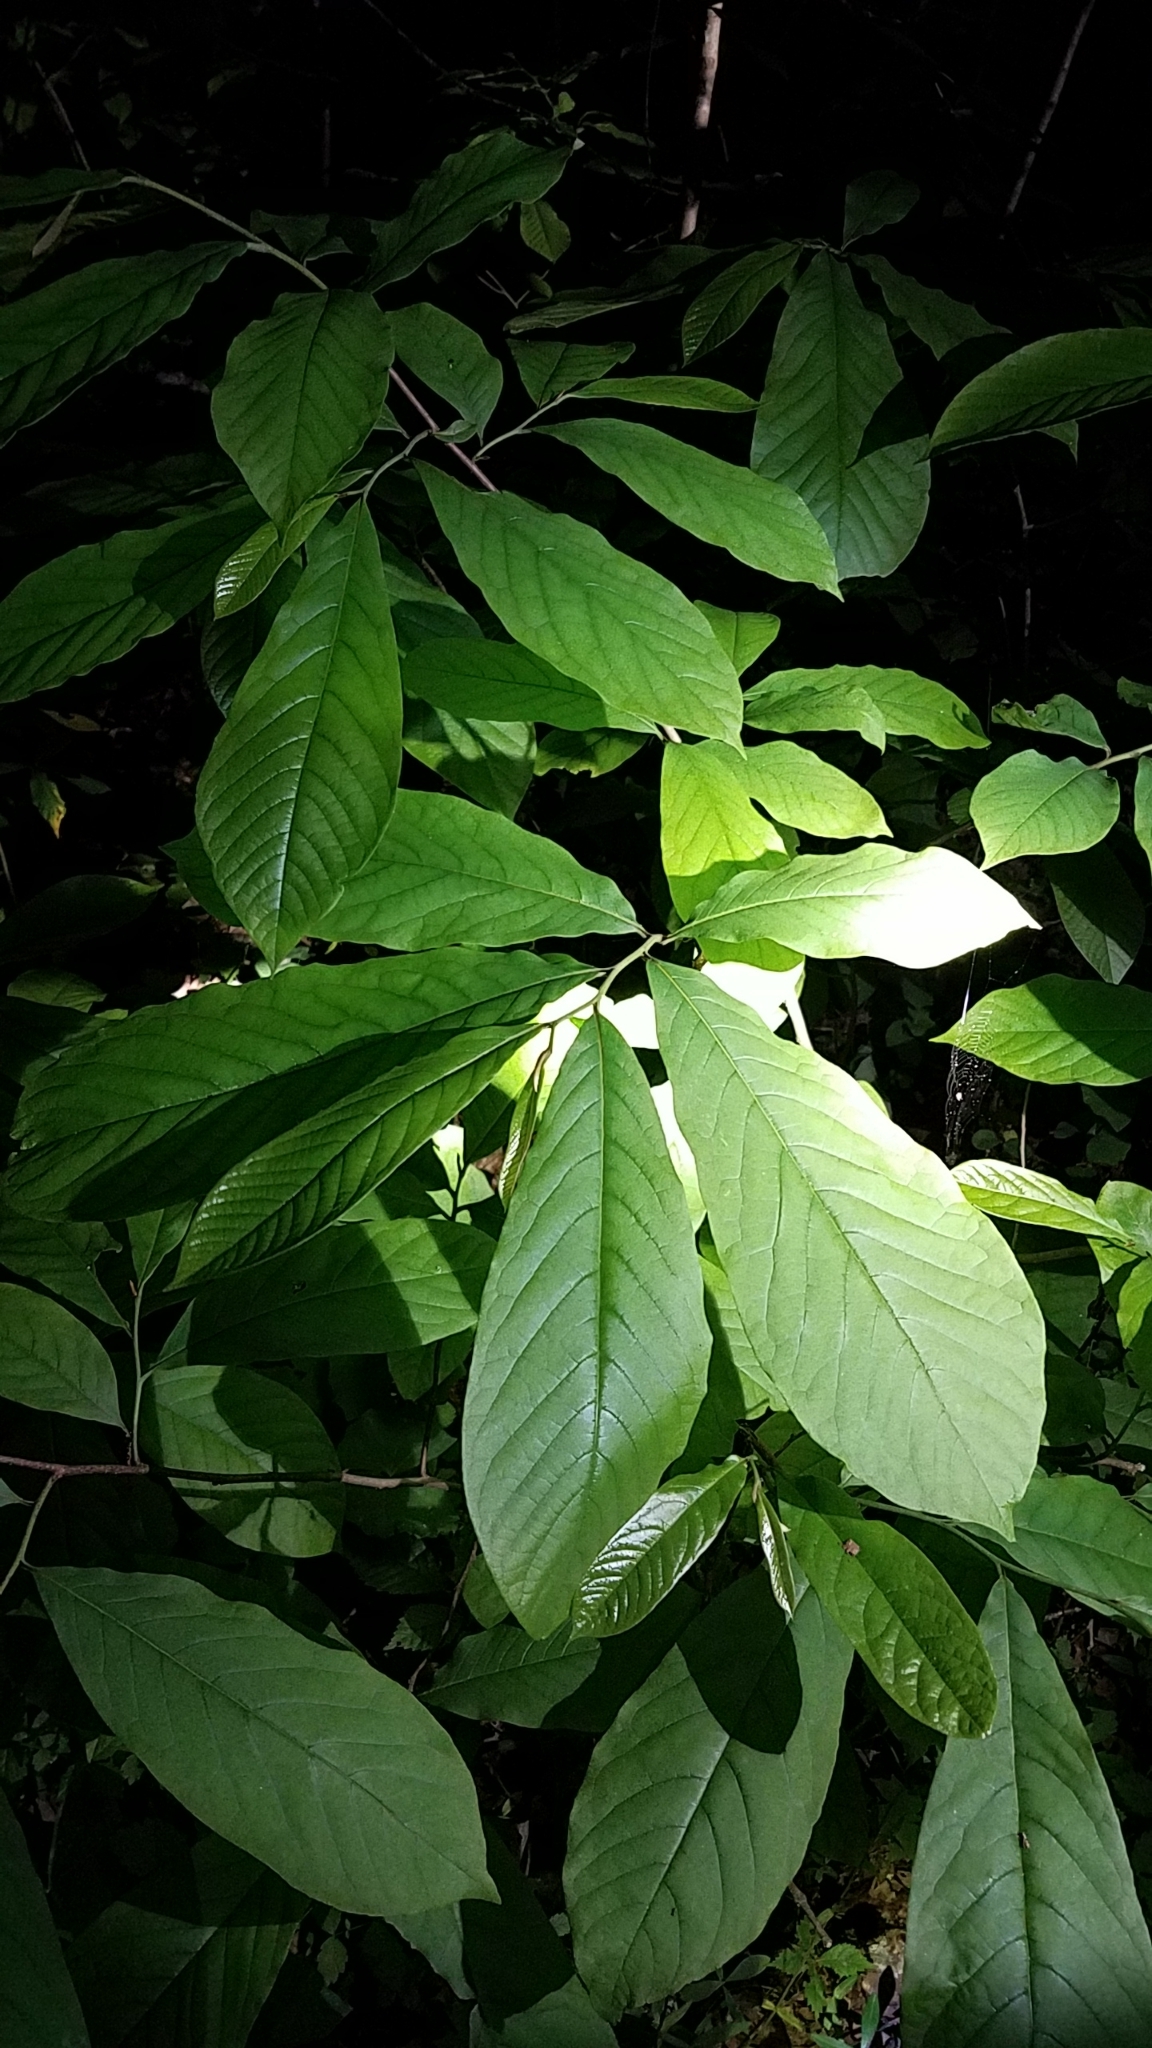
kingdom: Plantae
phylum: Tracheophyta
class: Magnoliopsida
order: Magnoliales
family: Annonaceae
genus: Asimina
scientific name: Asimina triloba
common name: Dog-banana
